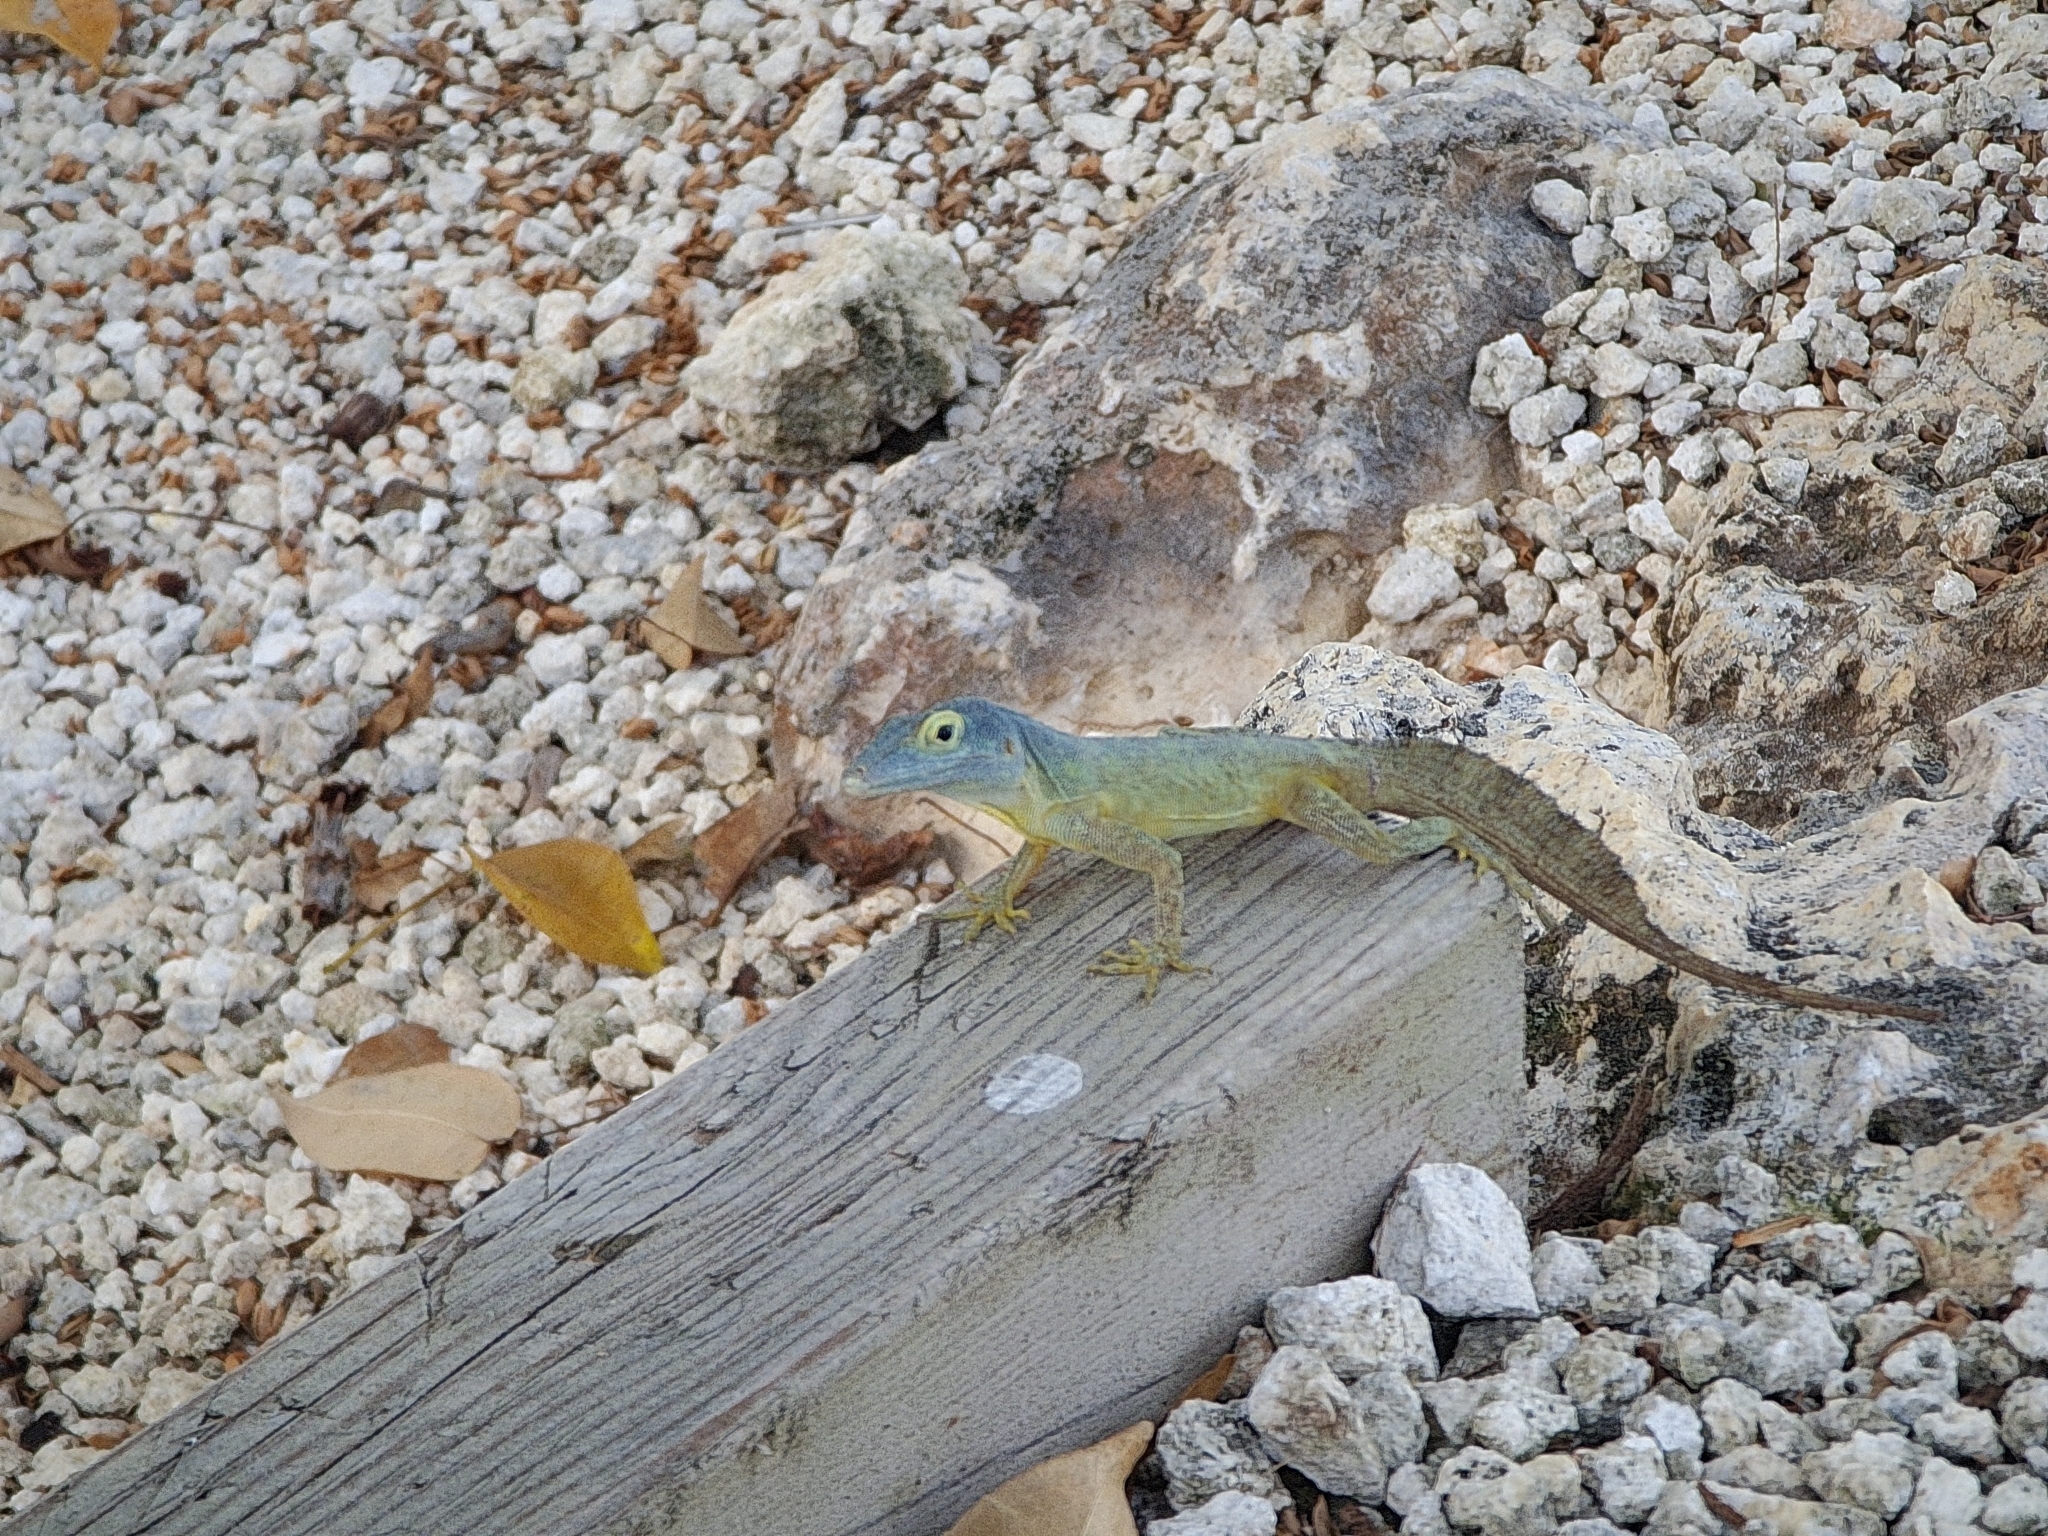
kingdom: Animalia
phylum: Chordata
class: Squamata
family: Dactyloidae
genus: Anolis
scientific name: Anolis ferreus
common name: Morne constant anole
